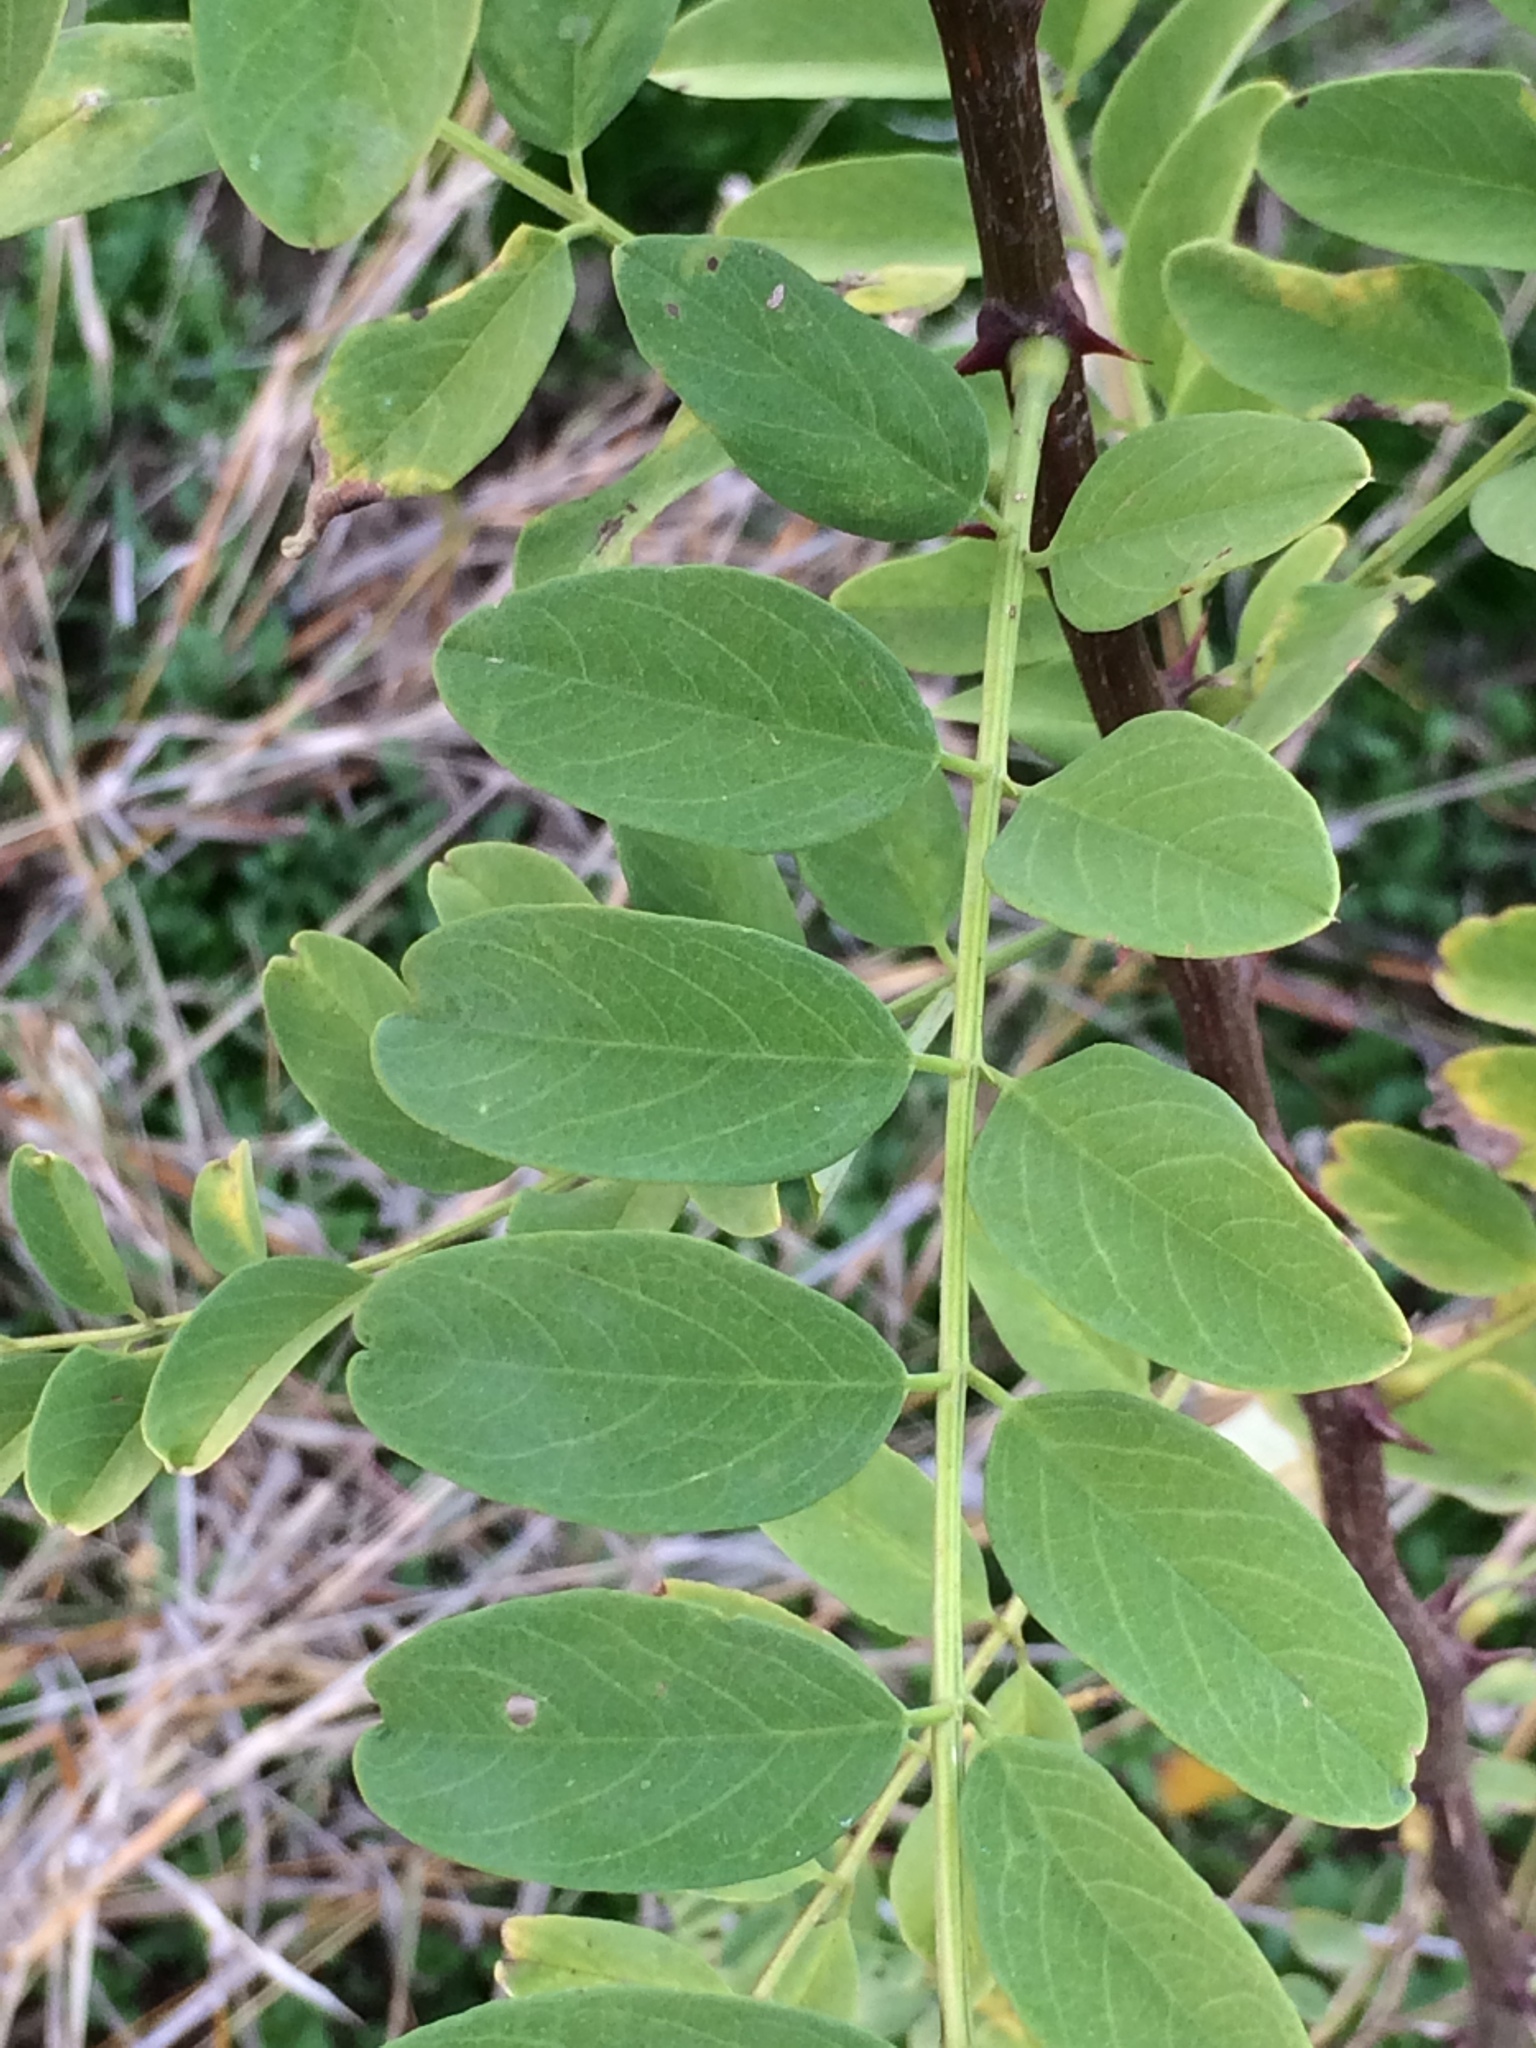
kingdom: Plantae
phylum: Tracheophyta
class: Magnoliopsida
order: Fabales
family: Fabaceae
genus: Robinia
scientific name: Robinia pseudoacacia
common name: Black locust
